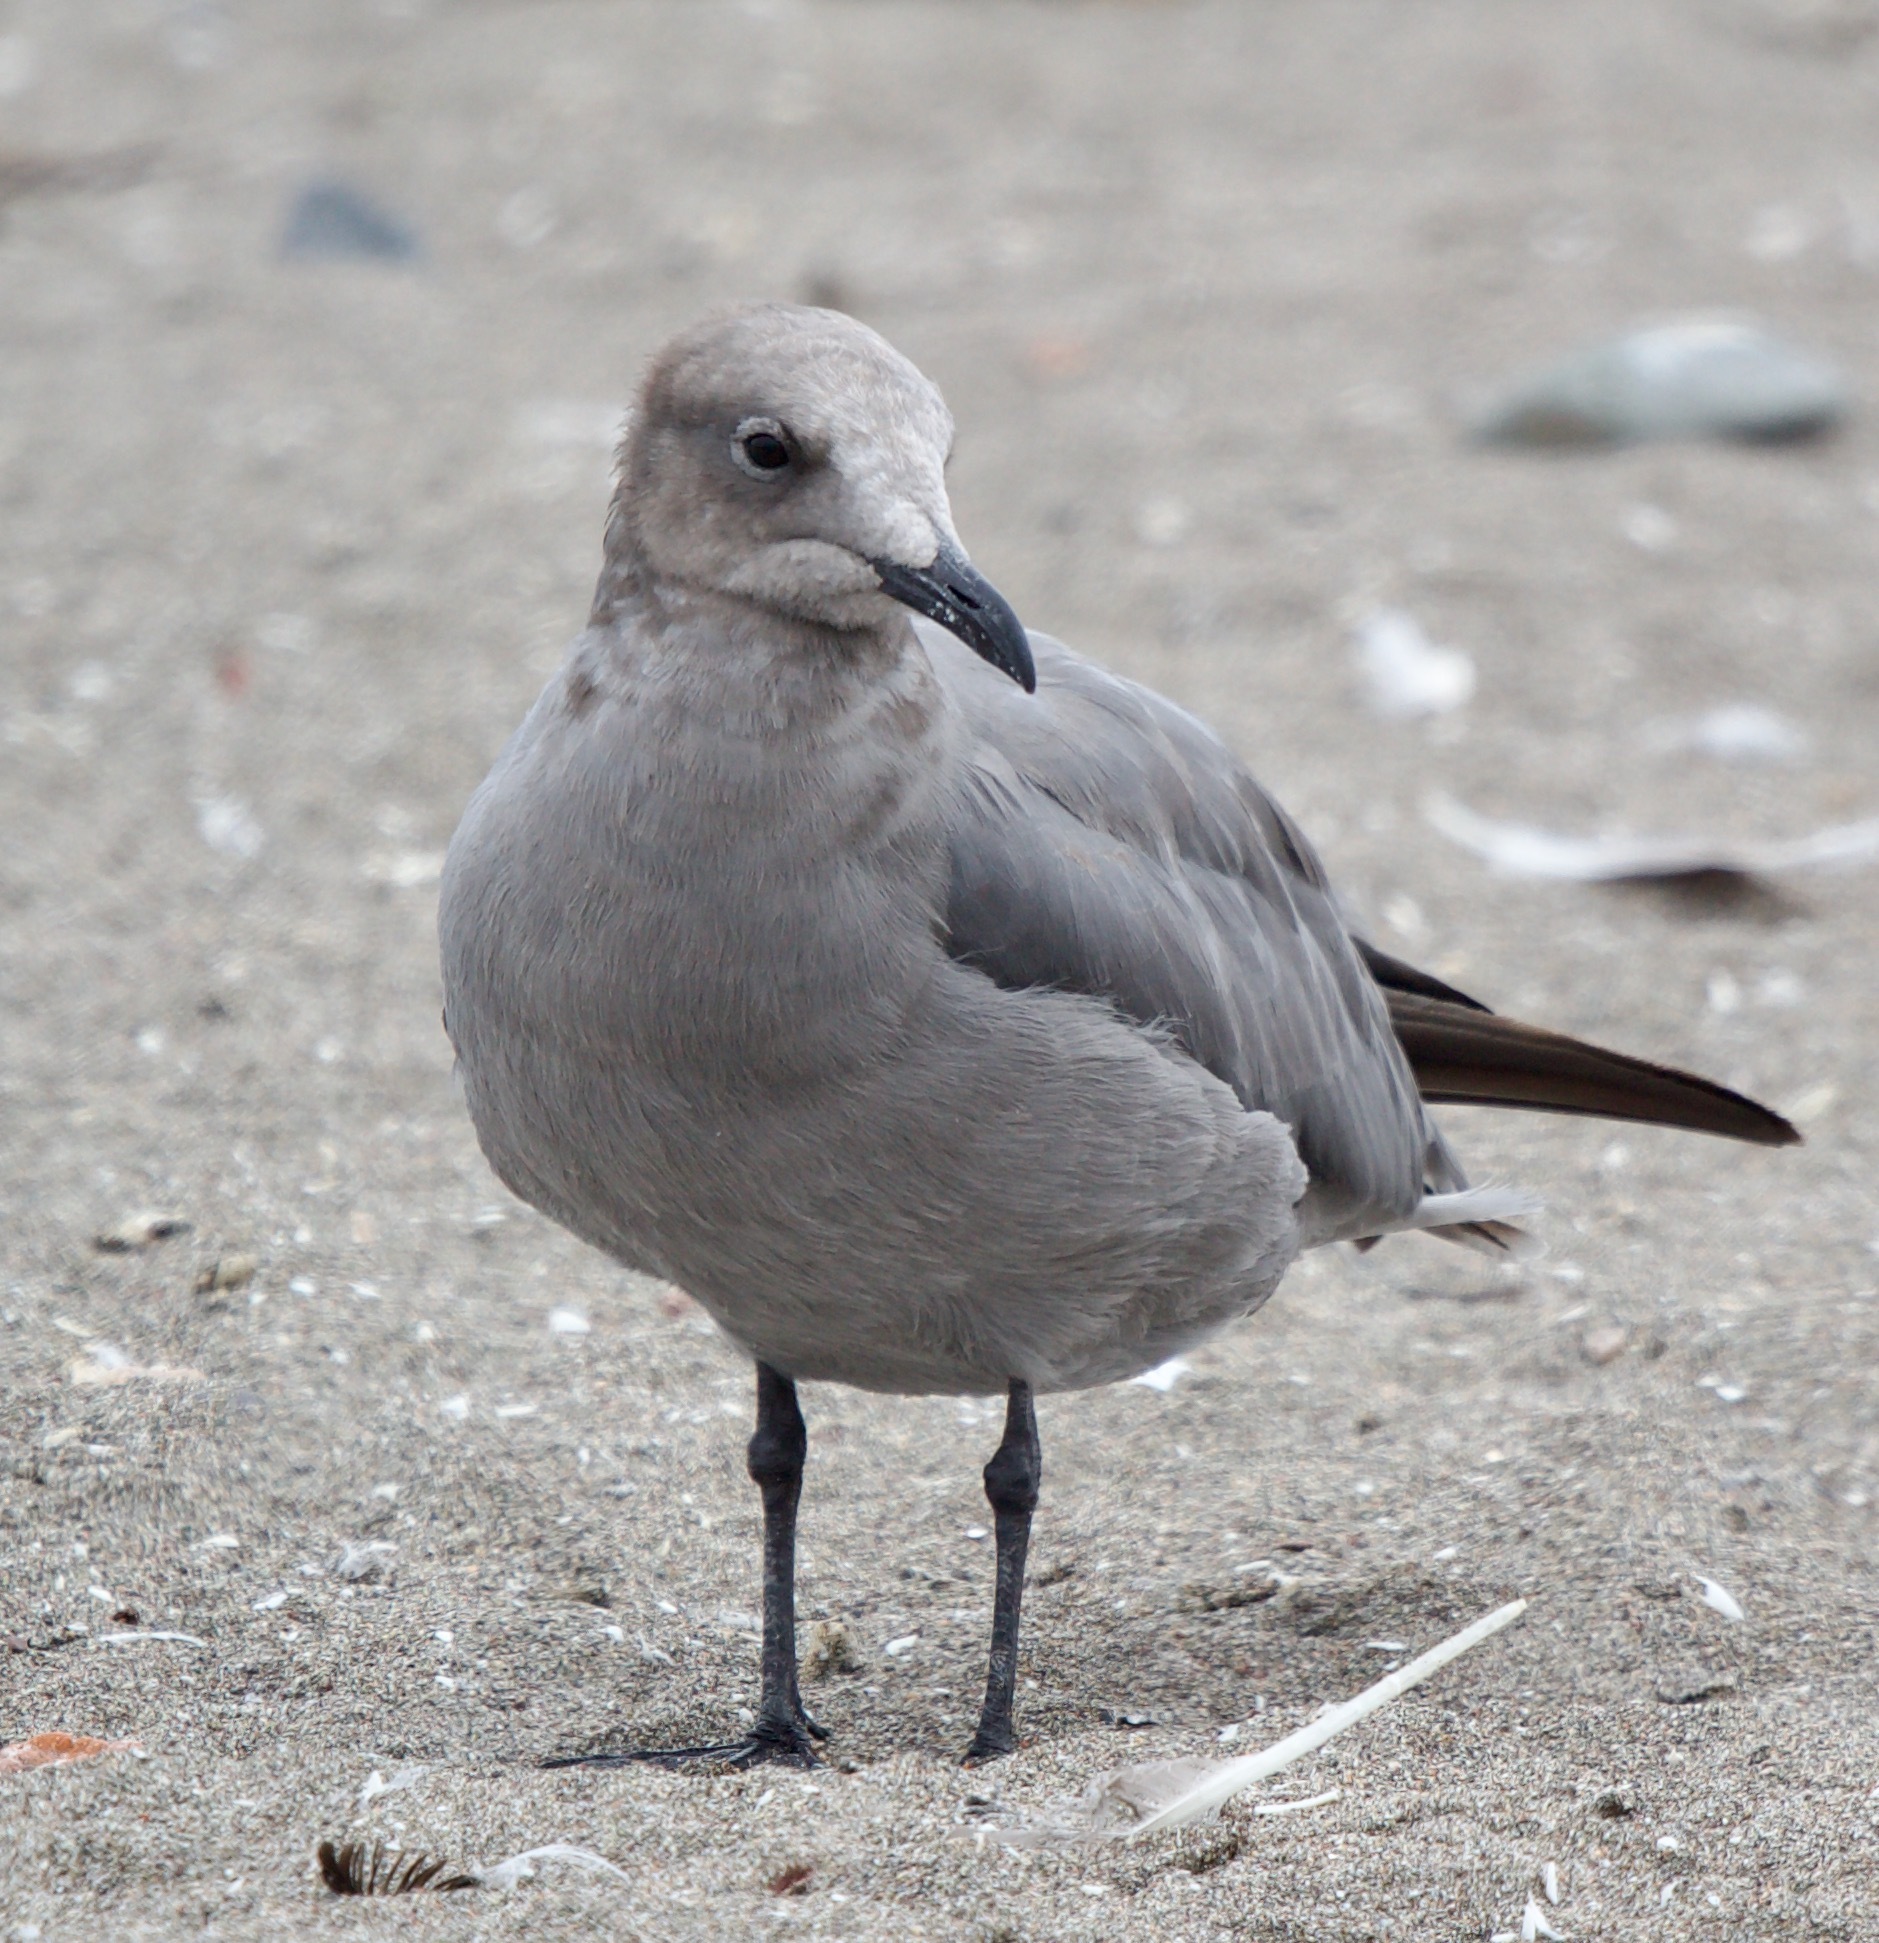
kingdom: Animalia
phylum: Chordata
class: Aves
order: Charadriiformes
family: Laridae
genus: Leucophaeus
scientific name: Leucophaeus modestus
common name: Gray gull
